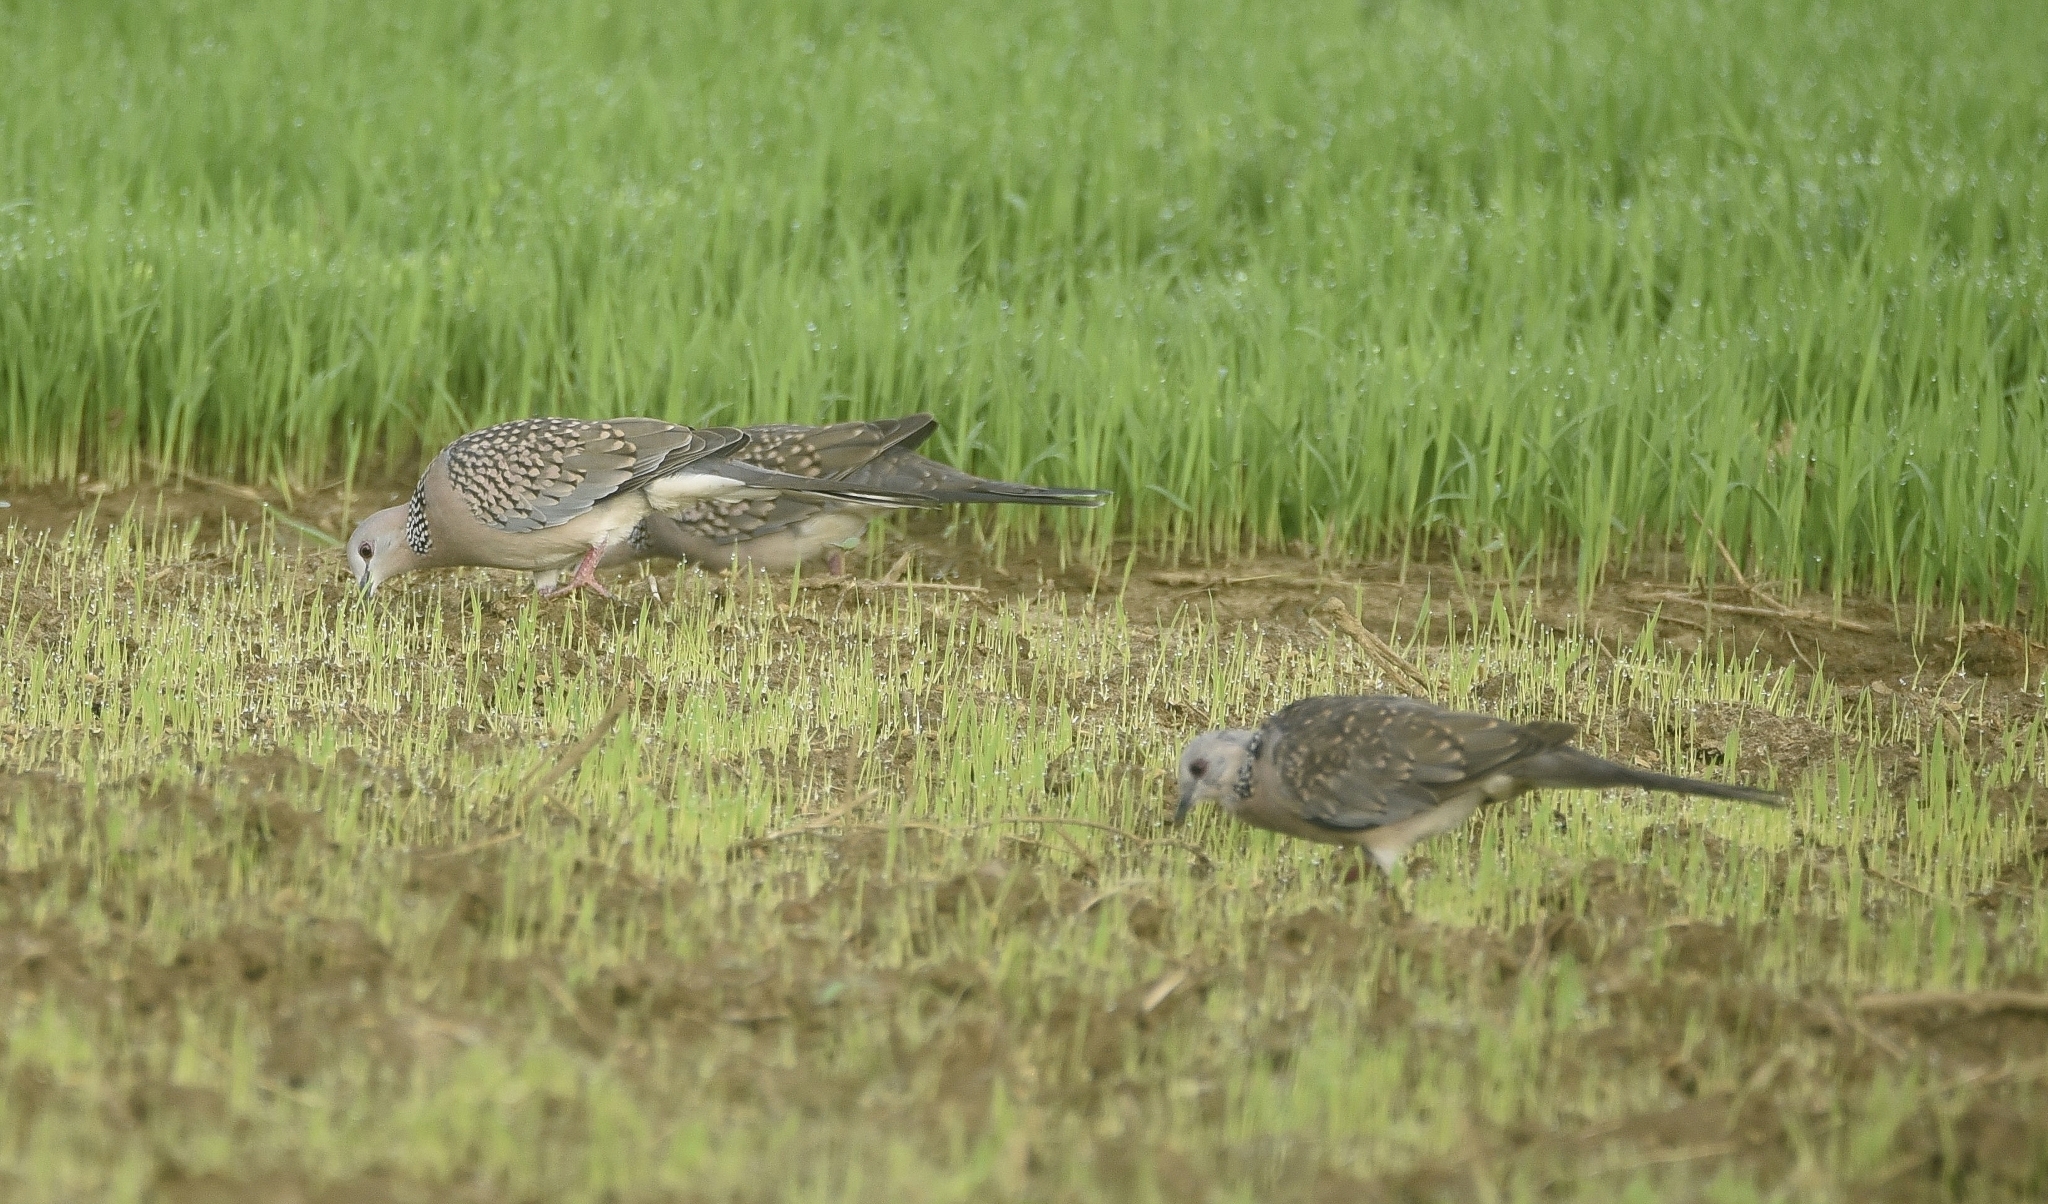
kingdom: Animalia
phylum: Chordata
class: Aves
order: Columbiformes
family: Columbidae
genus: Spilopelia
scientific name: Spilopelia chinensis
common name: Spotted dove
